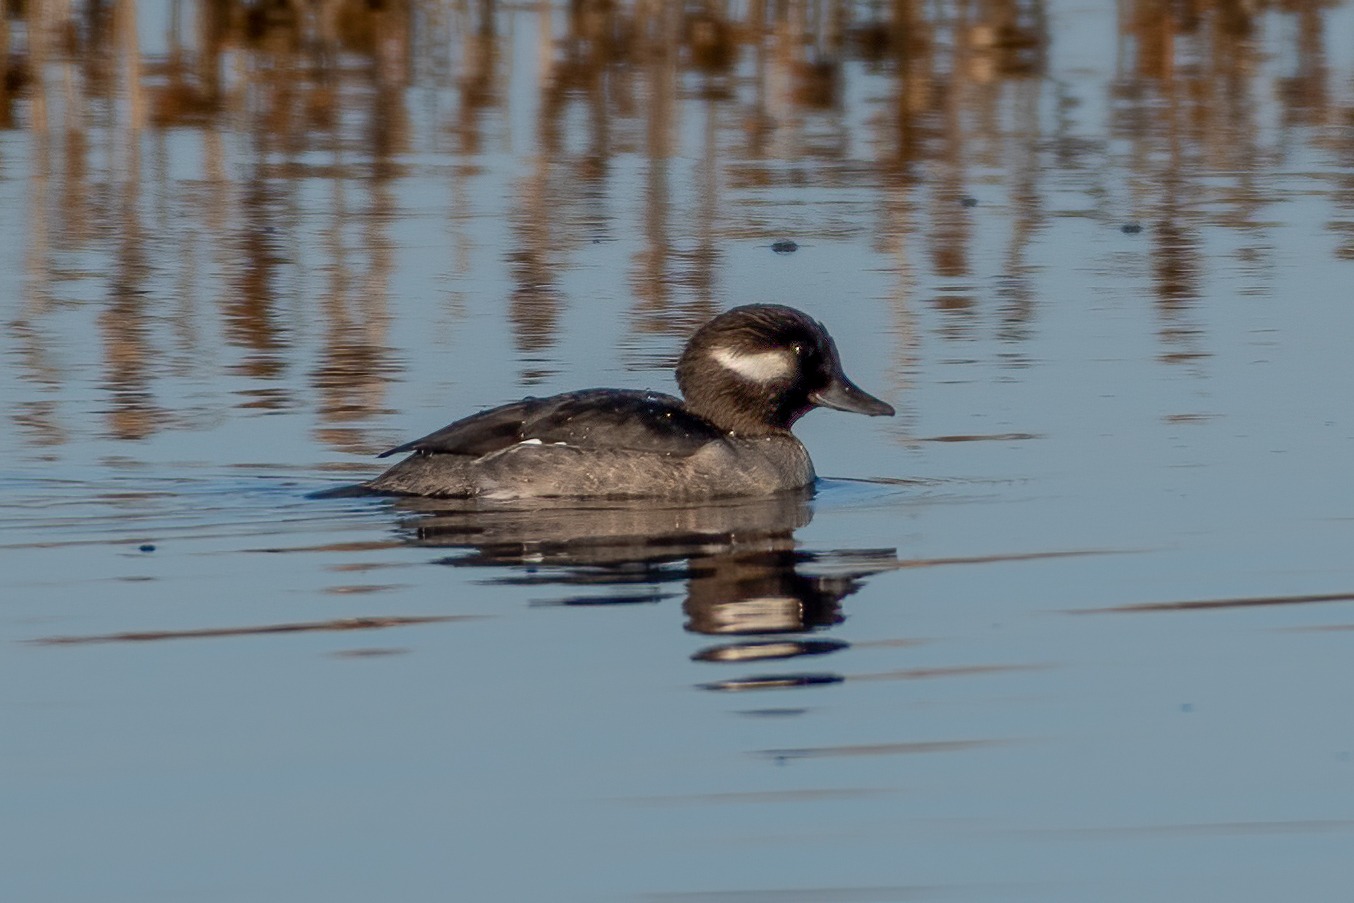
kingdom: Animalia
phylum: Chordata
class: Aves
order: Anseriformes
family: Anatidae
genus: Bucephala
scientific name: Bucephala albeola
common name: Bufflehead
